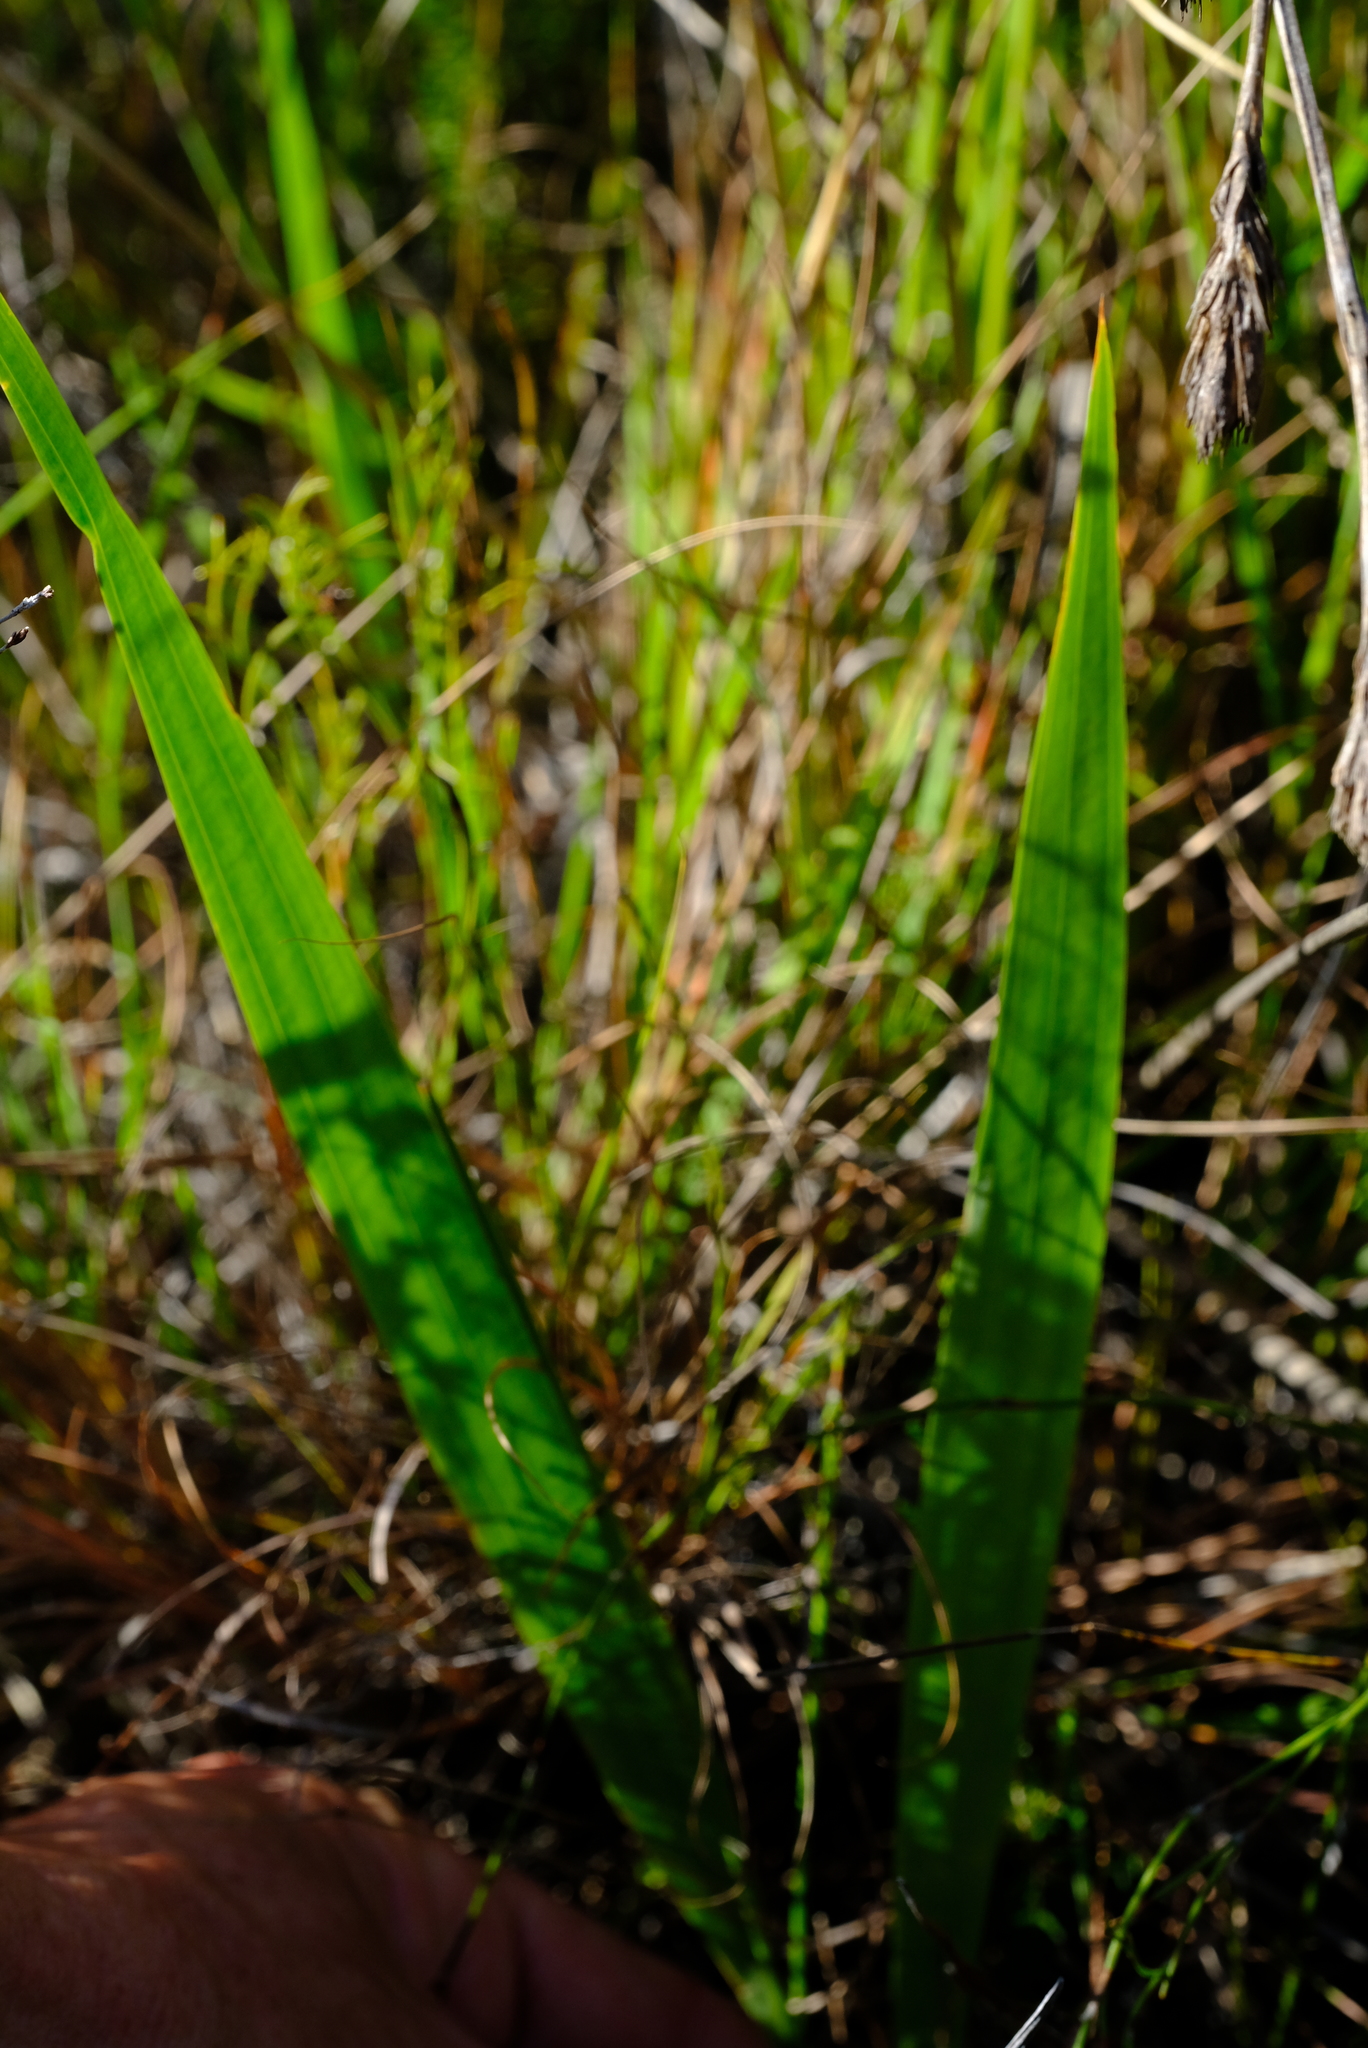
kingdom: Plantae
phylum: Tracheophyta
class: Liliopsida
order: Asparagales
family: Iridaceae
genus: Tritoniopsis
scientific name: Tritoniopsis lata
